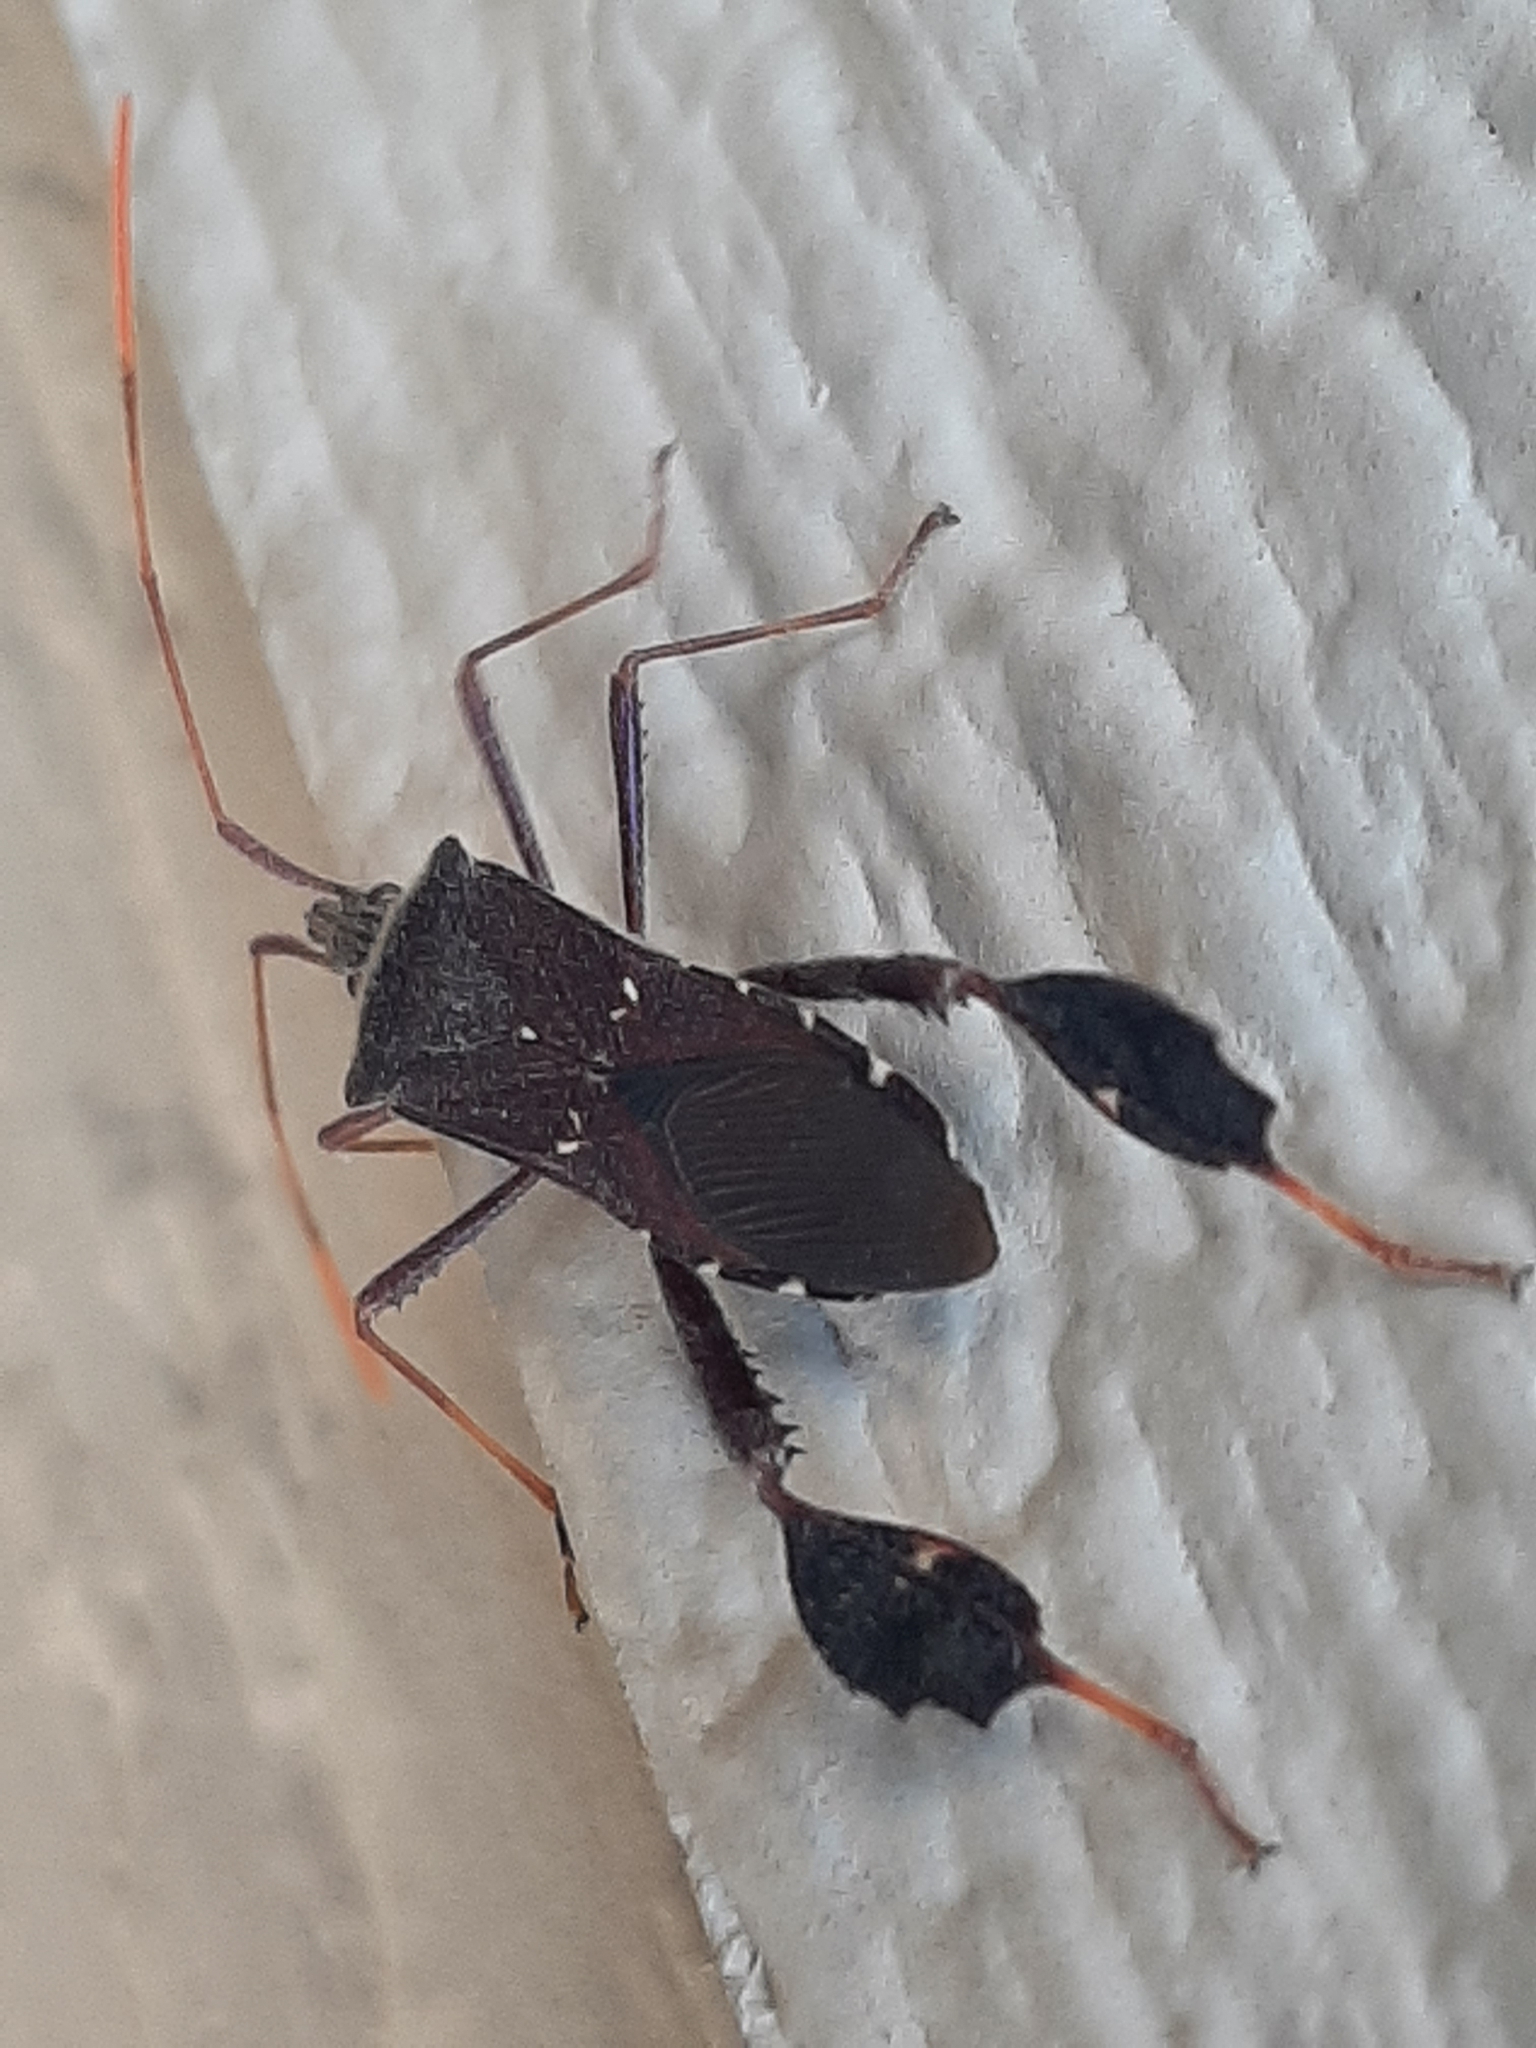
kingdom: Animalia
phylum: Arthropoda
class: Insecta
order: Hemiptera
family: Coreidae
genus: Leptoglossus
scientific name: Leptoglossus oppositus
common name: Northern leaf-footed bug
